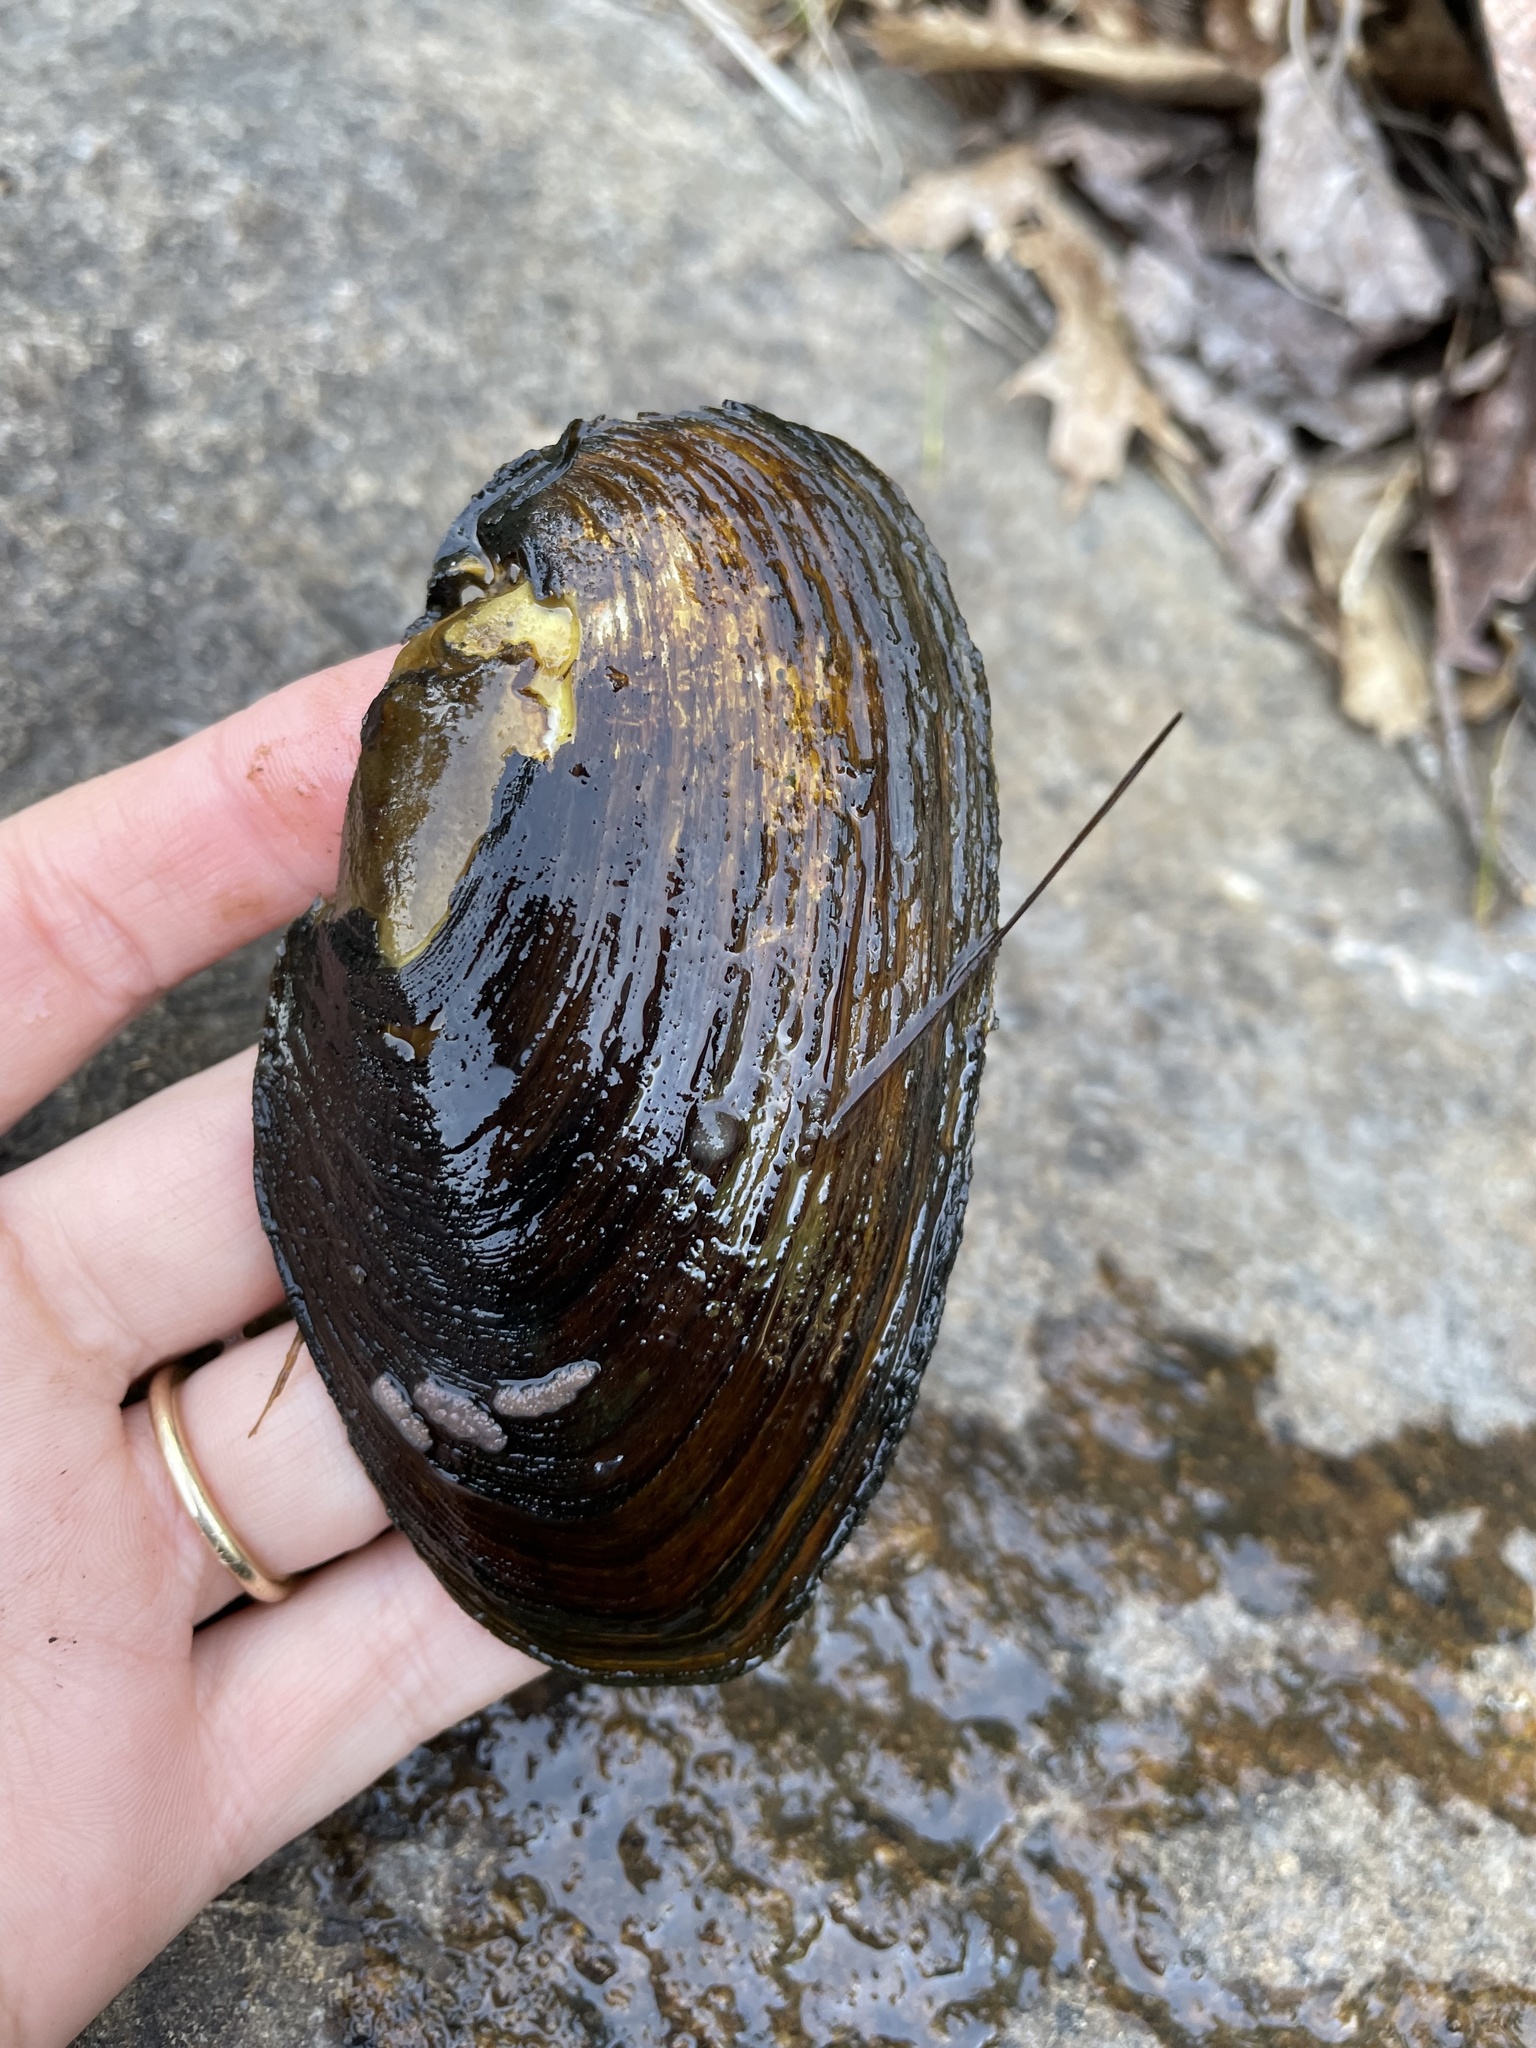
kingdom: Animalia
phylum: Mollusca
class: Bivalvia
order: Unionida
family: Unionidae
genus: Elliptio
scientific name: Elliptio complanata
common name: Eastern elliptio
